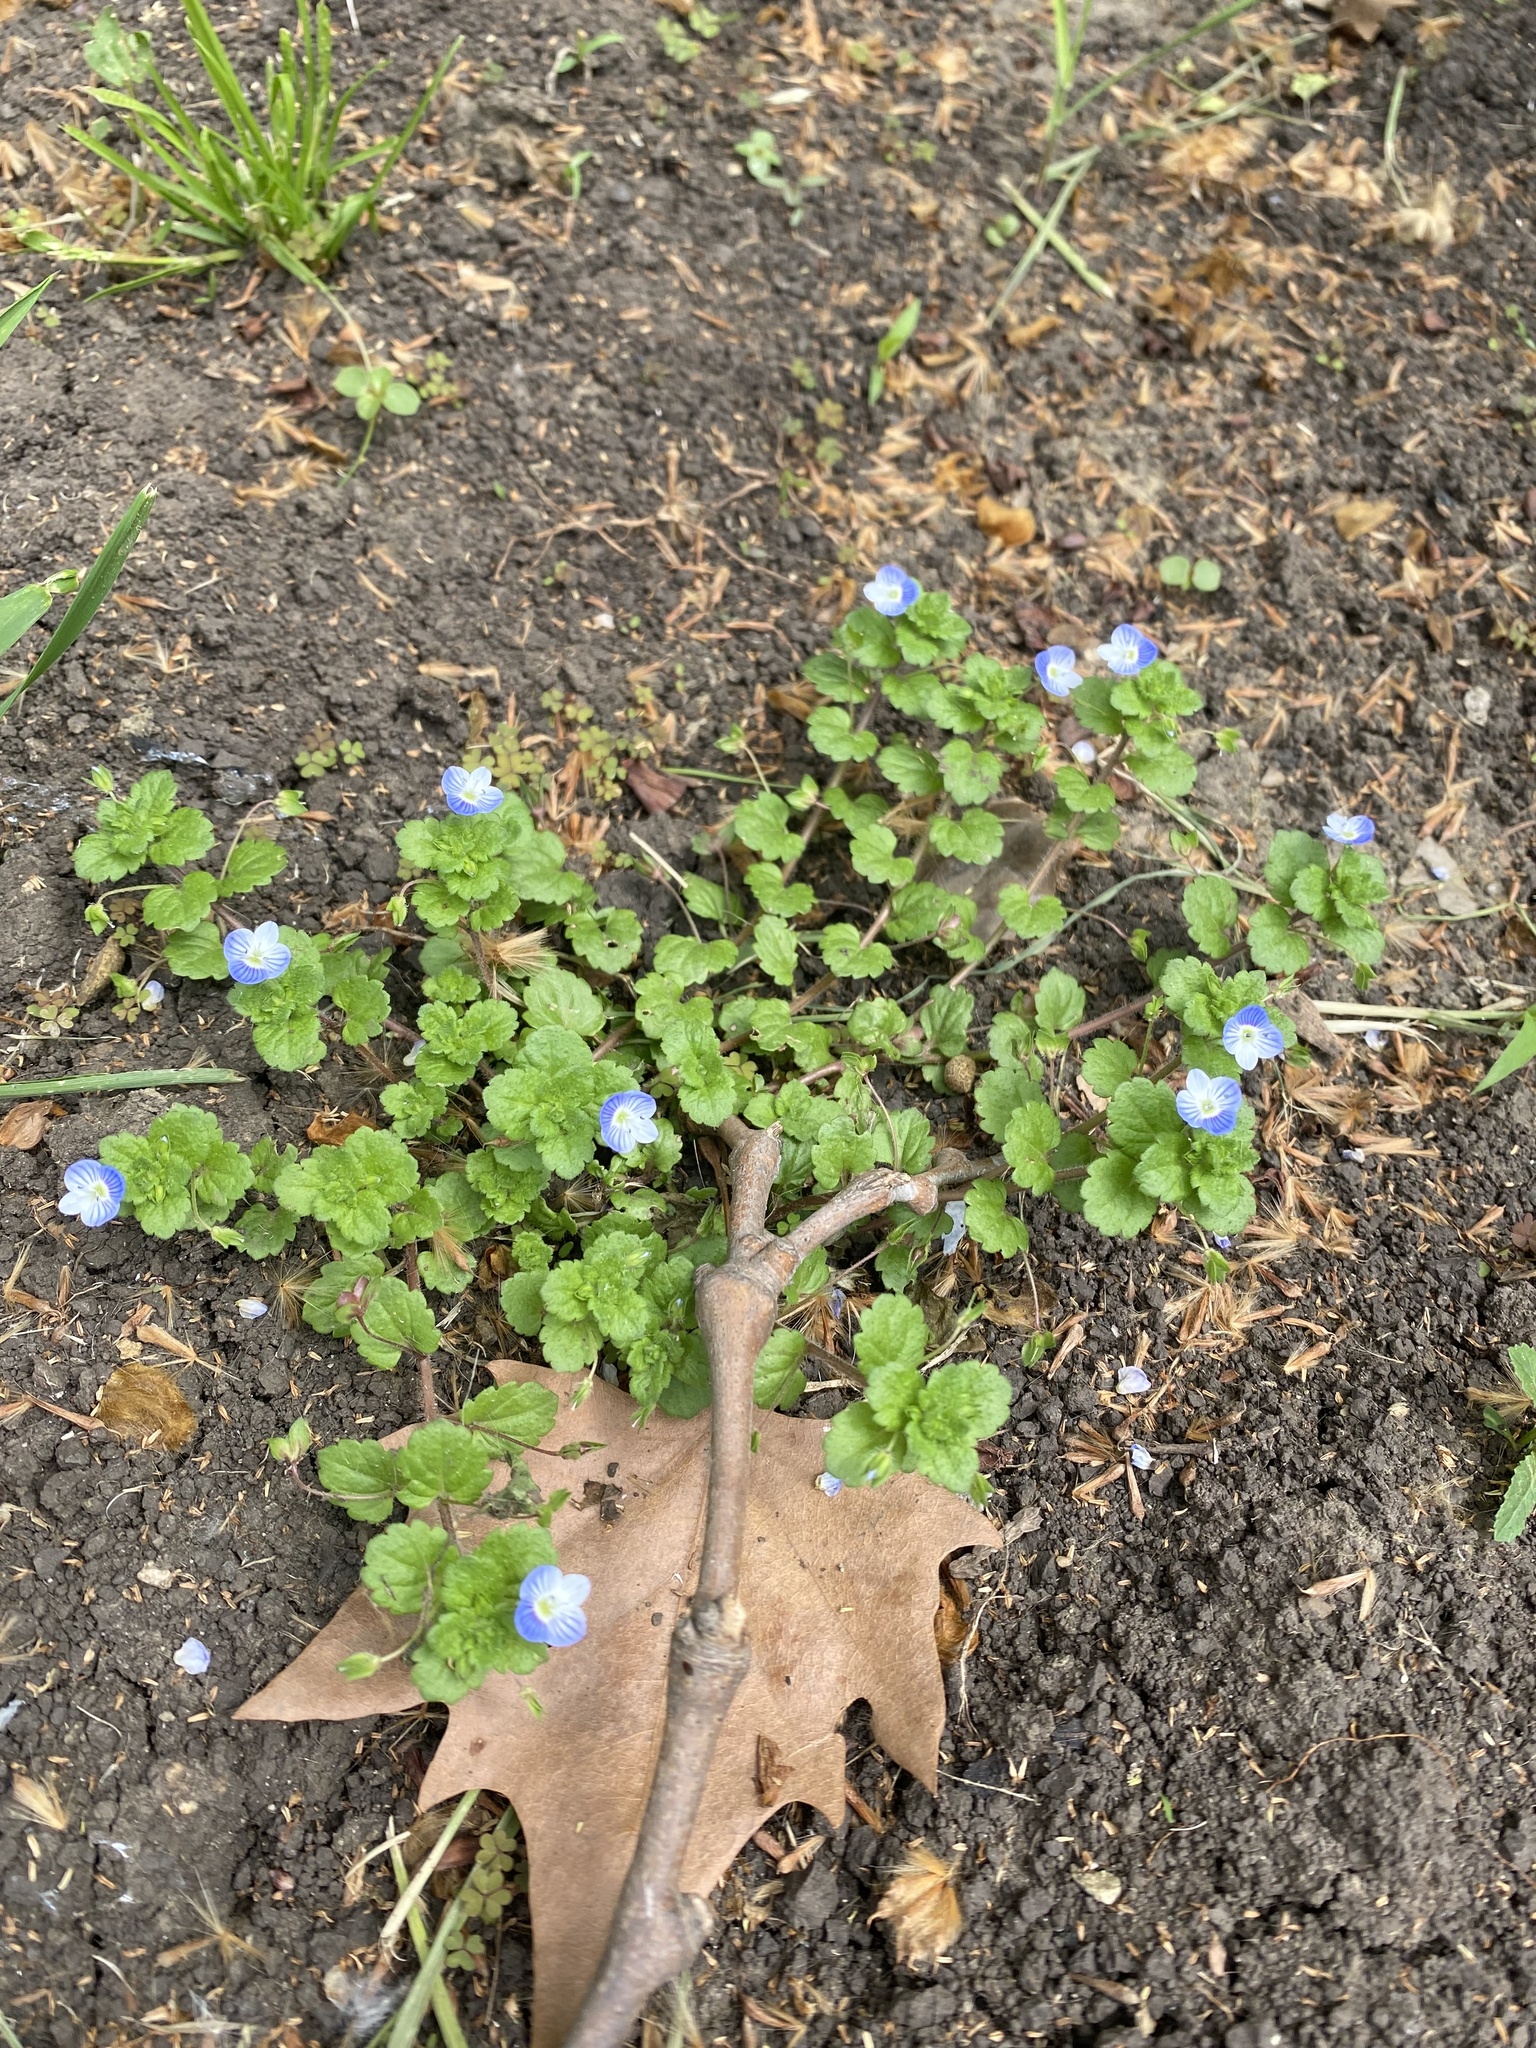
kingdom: Plantae
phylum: Tracheophyta
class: Magnoliopsida
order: Lamiales
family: Plantaginaceae
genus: Veronica
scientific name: Veronica persica
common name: Common field-speedwell
